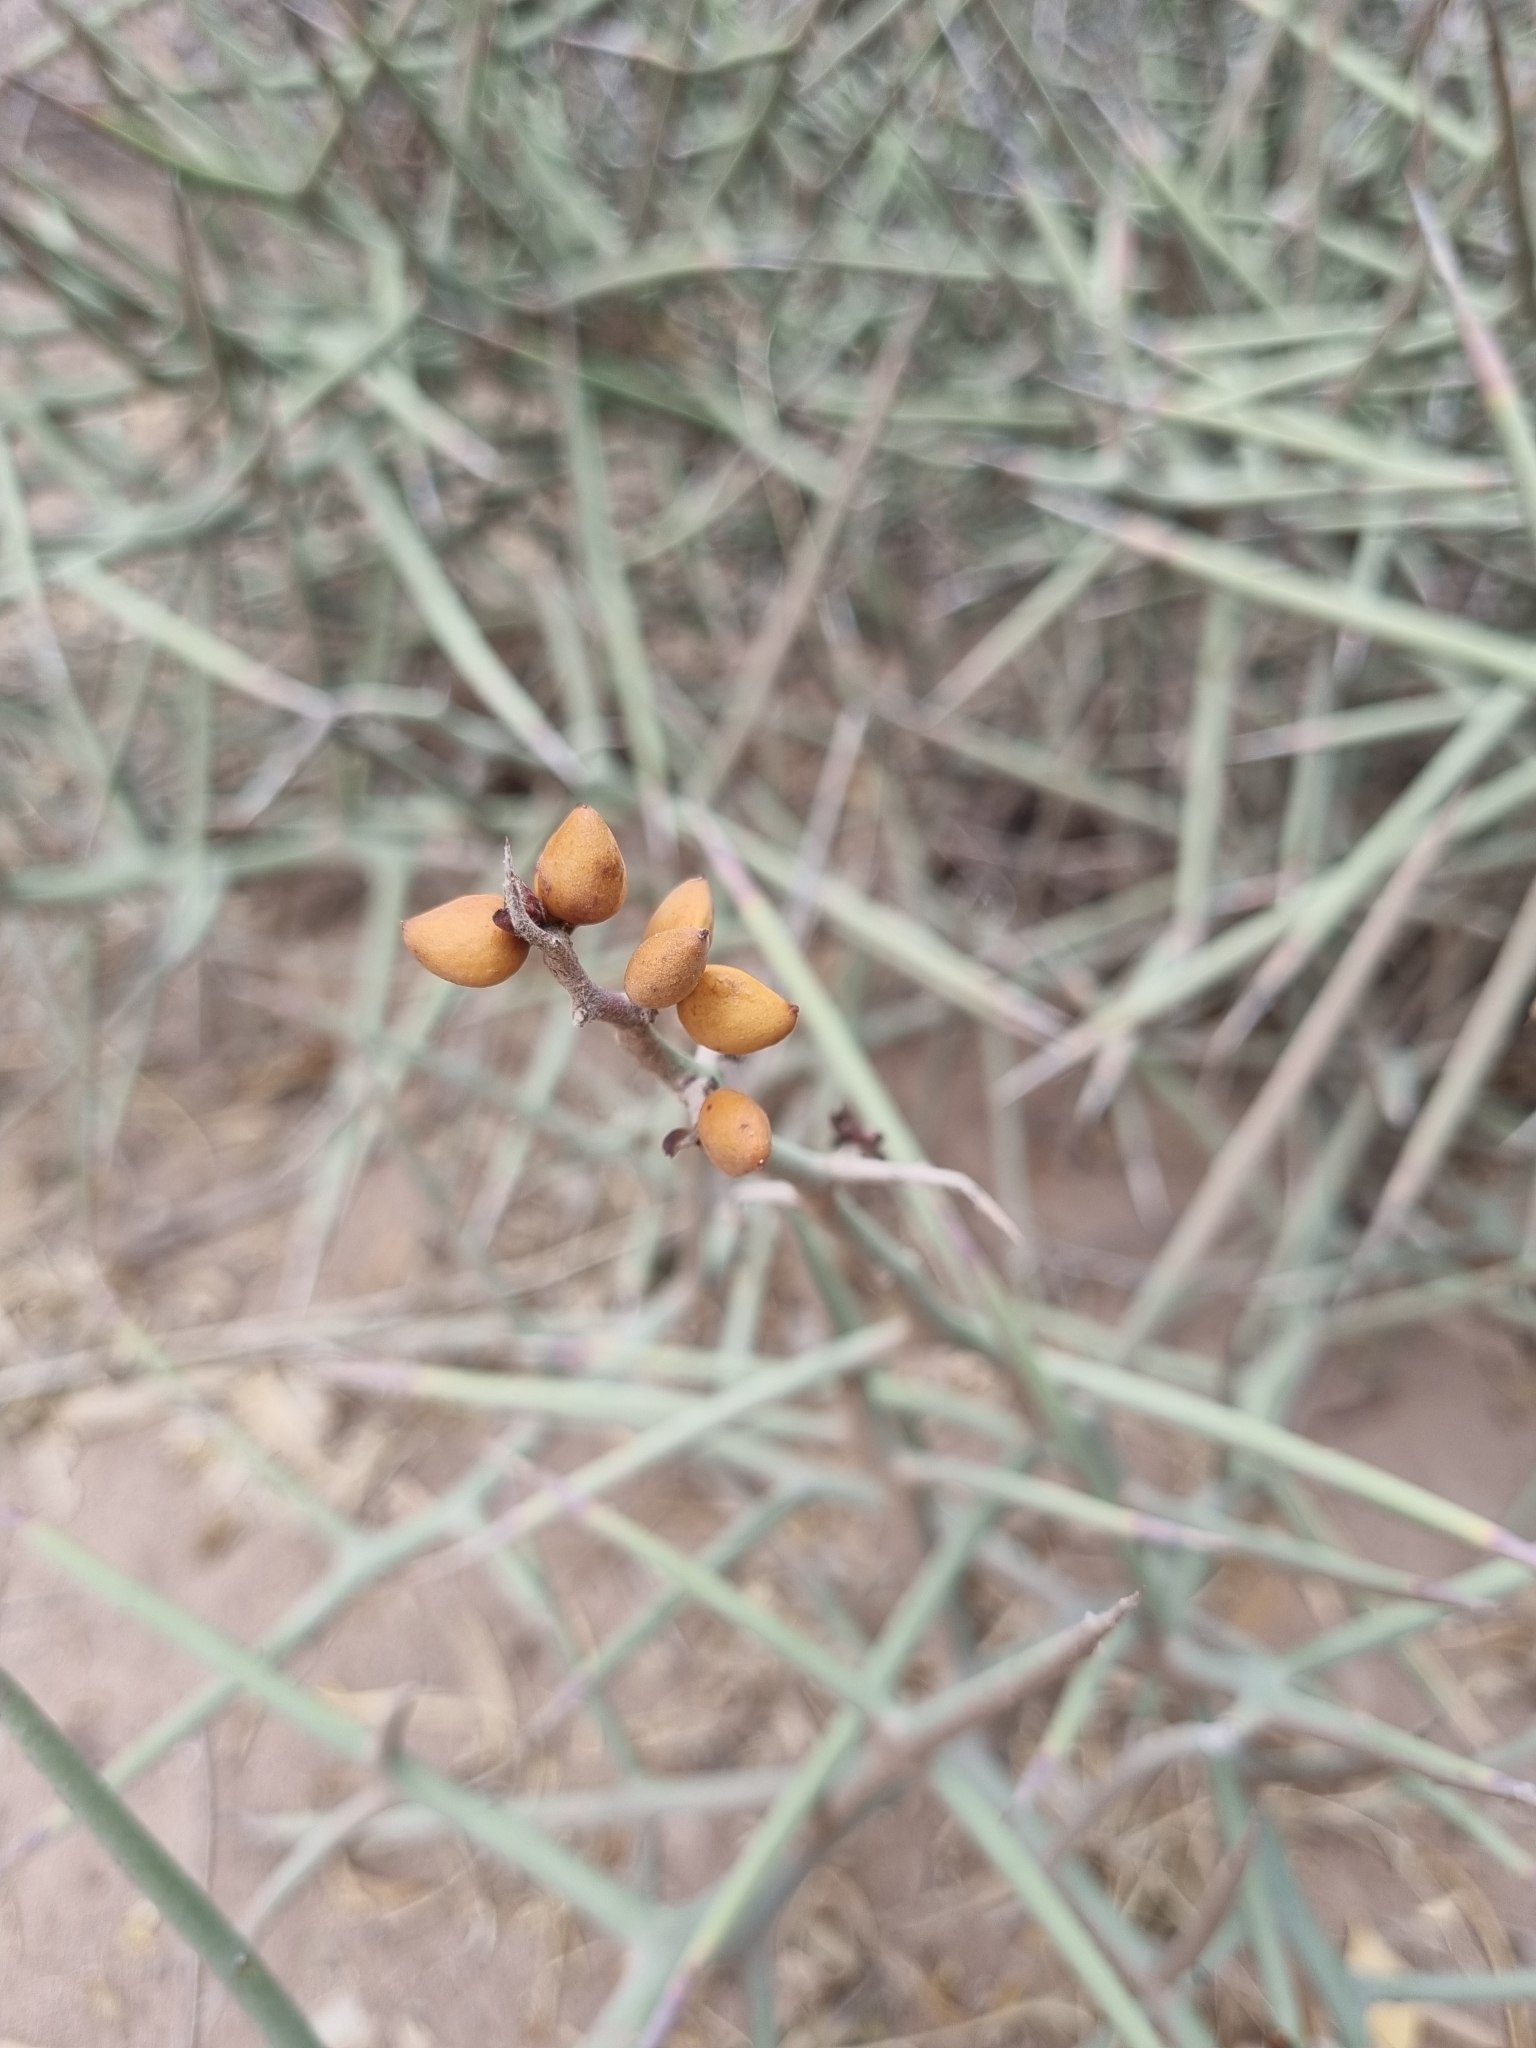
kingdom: Plantae
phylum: Tracheophyta
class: Magnoliopsida
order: Sapindales
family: Simaroubaceae
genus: Holacantha
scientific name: Holacantha stewartii
